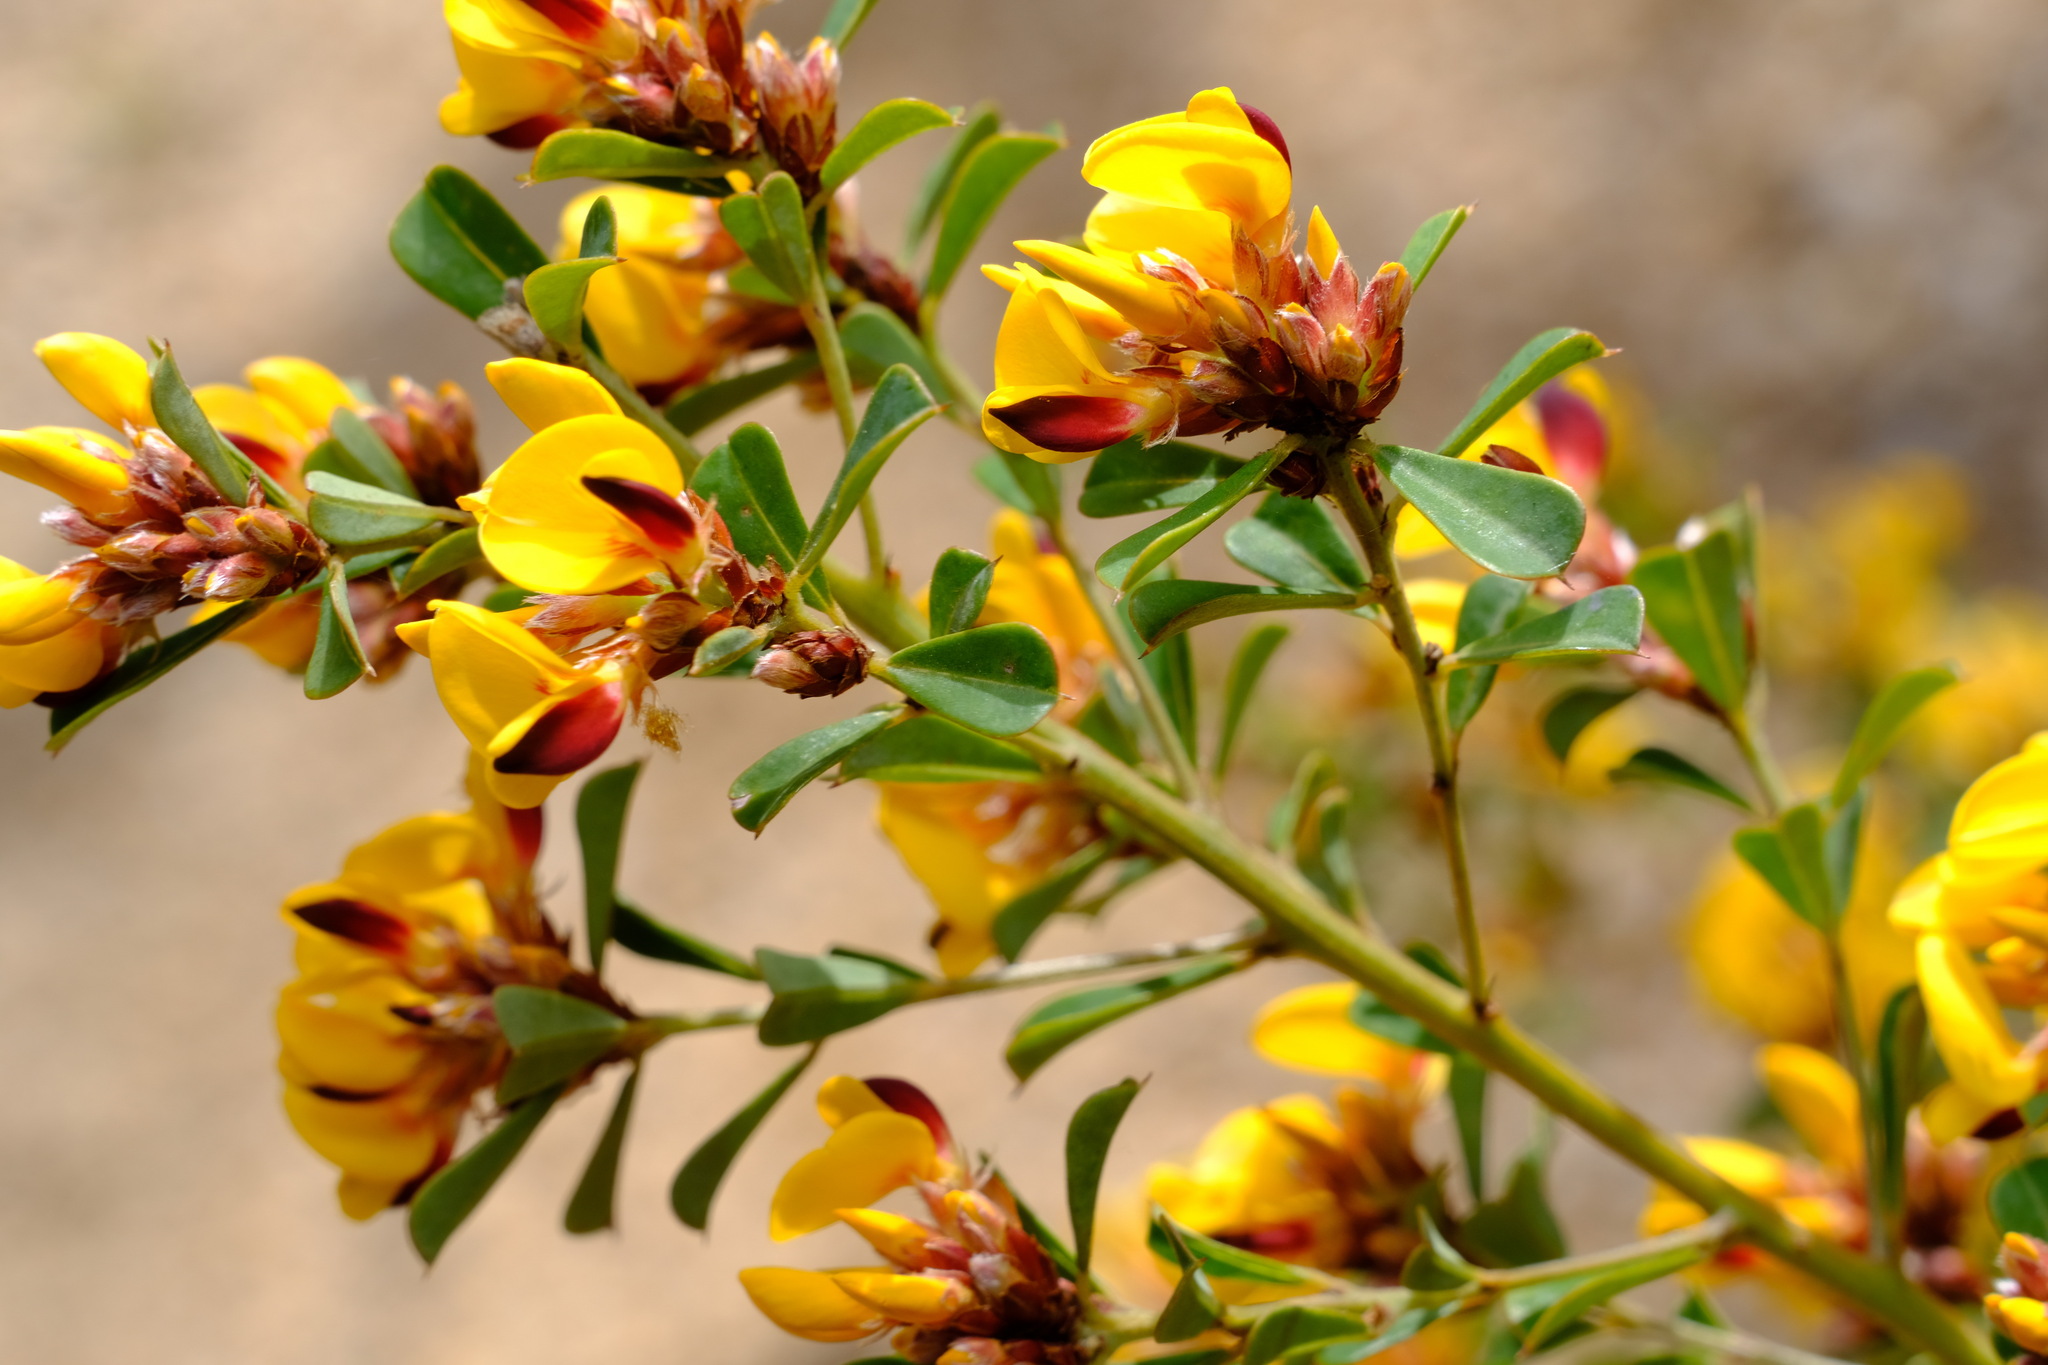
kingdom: Plantae
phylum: Tracheophyta
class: Magnoliopsida
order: Fabales
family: Fabaceae
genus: Pultenaea
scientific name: Pultenaea daphnoides
